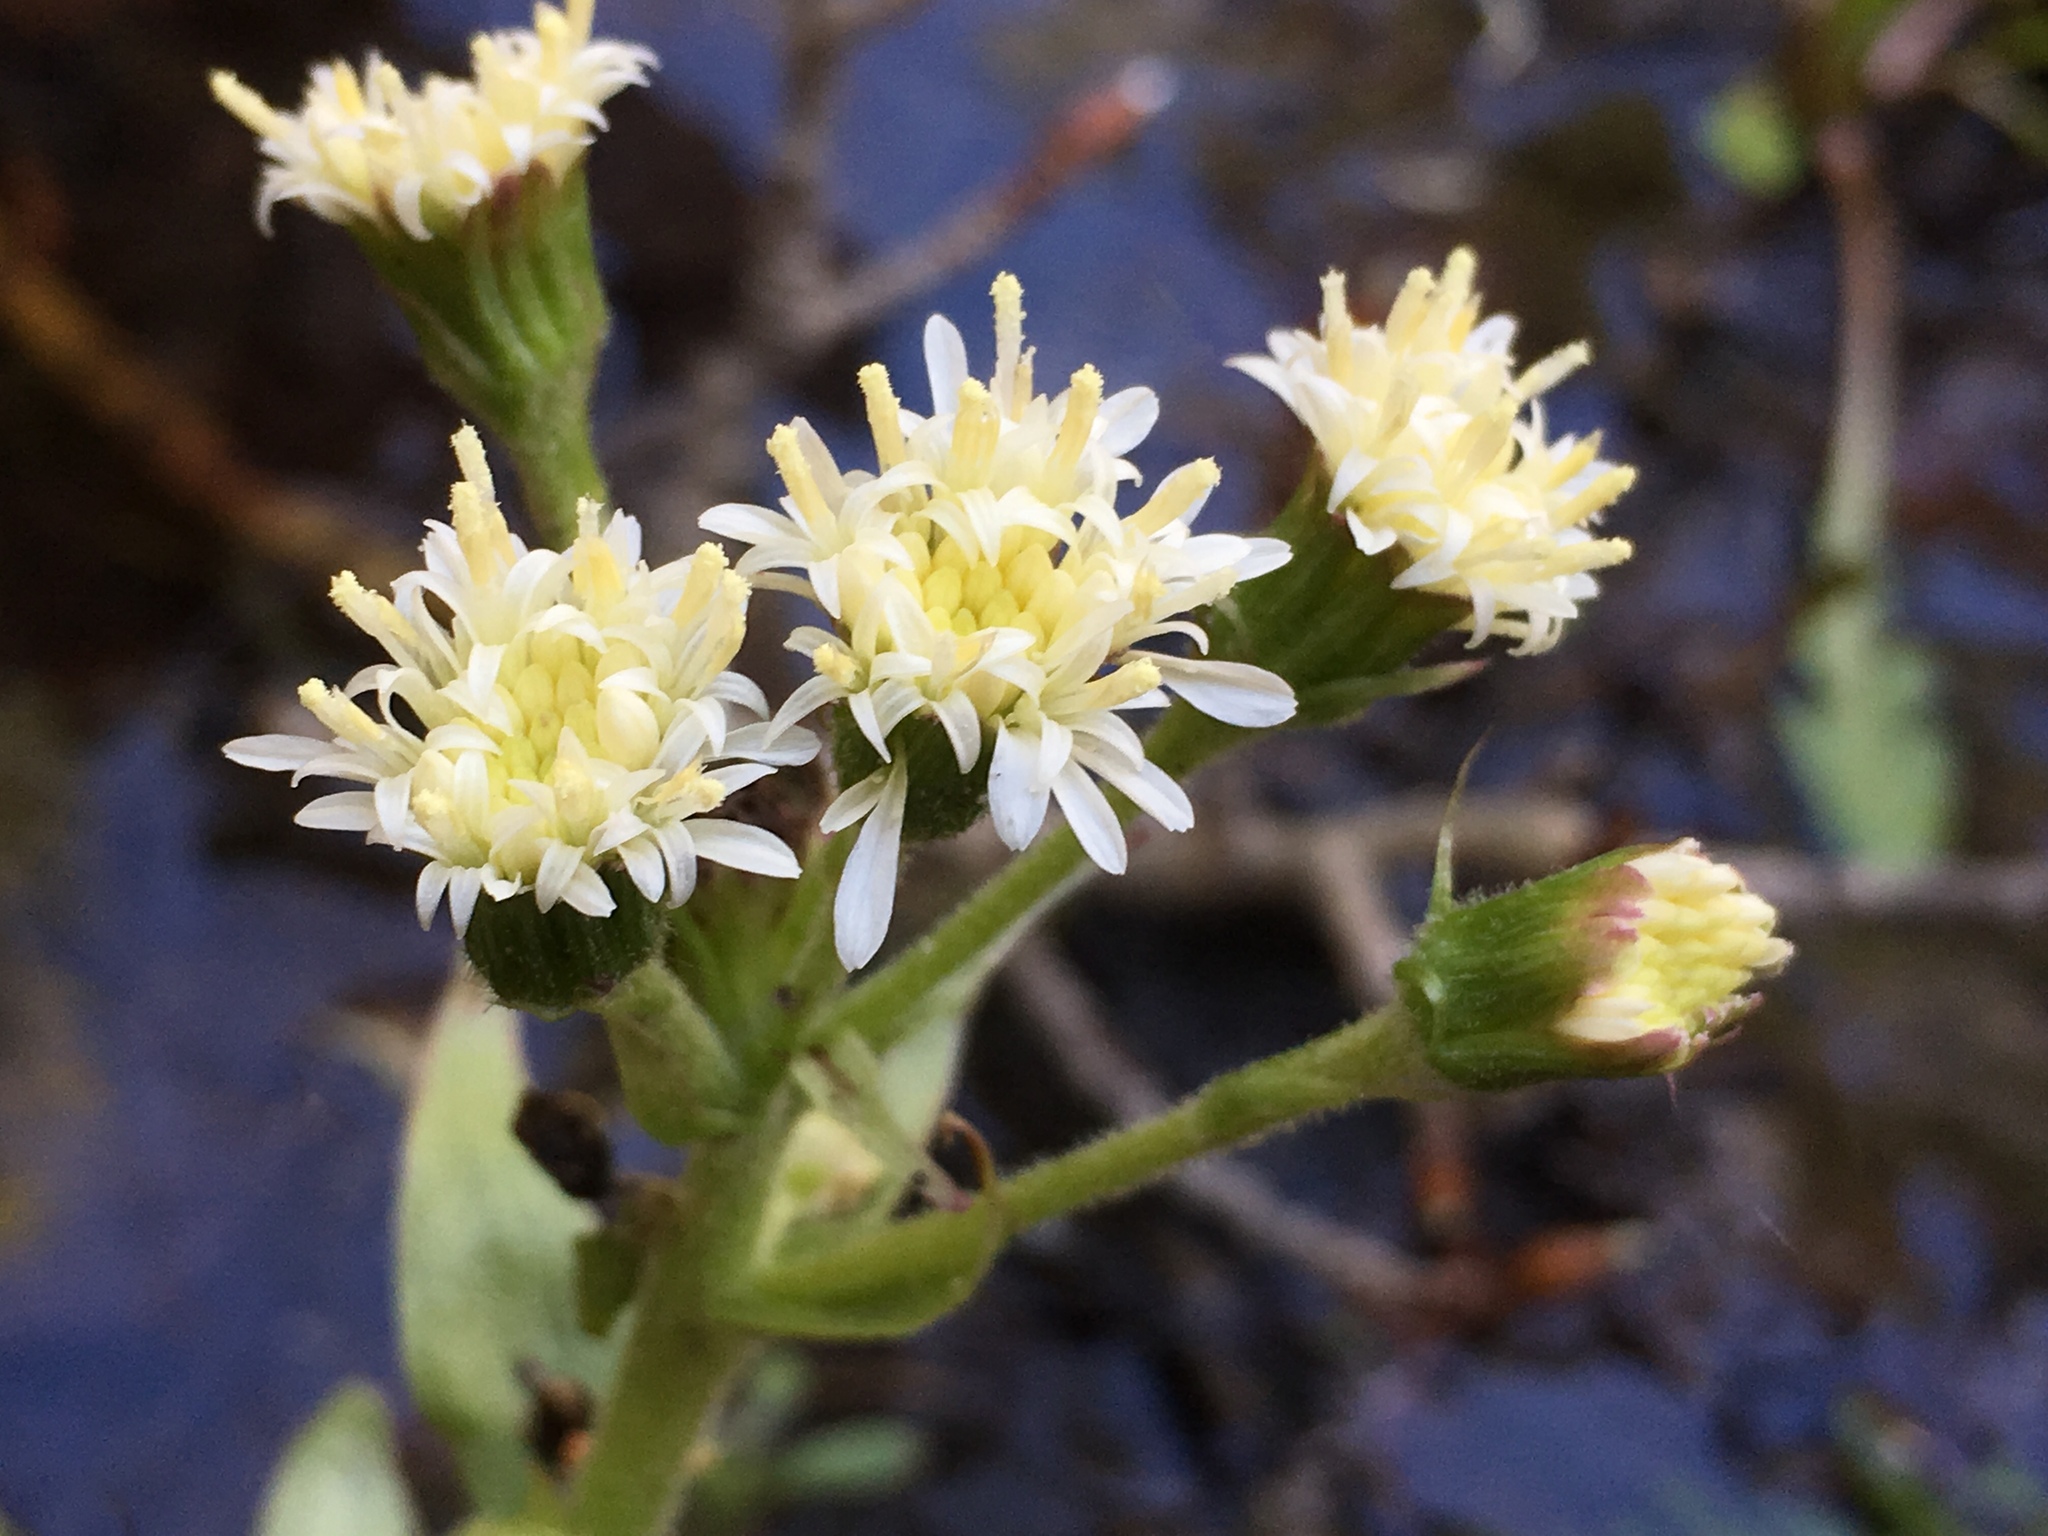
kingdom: Plantae
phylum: Tracheophyta
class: Magnoliopsida
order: Asterales
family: Asteraceae
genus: Petasites
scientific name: Petasites frigidus
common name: Arctic butterbur
